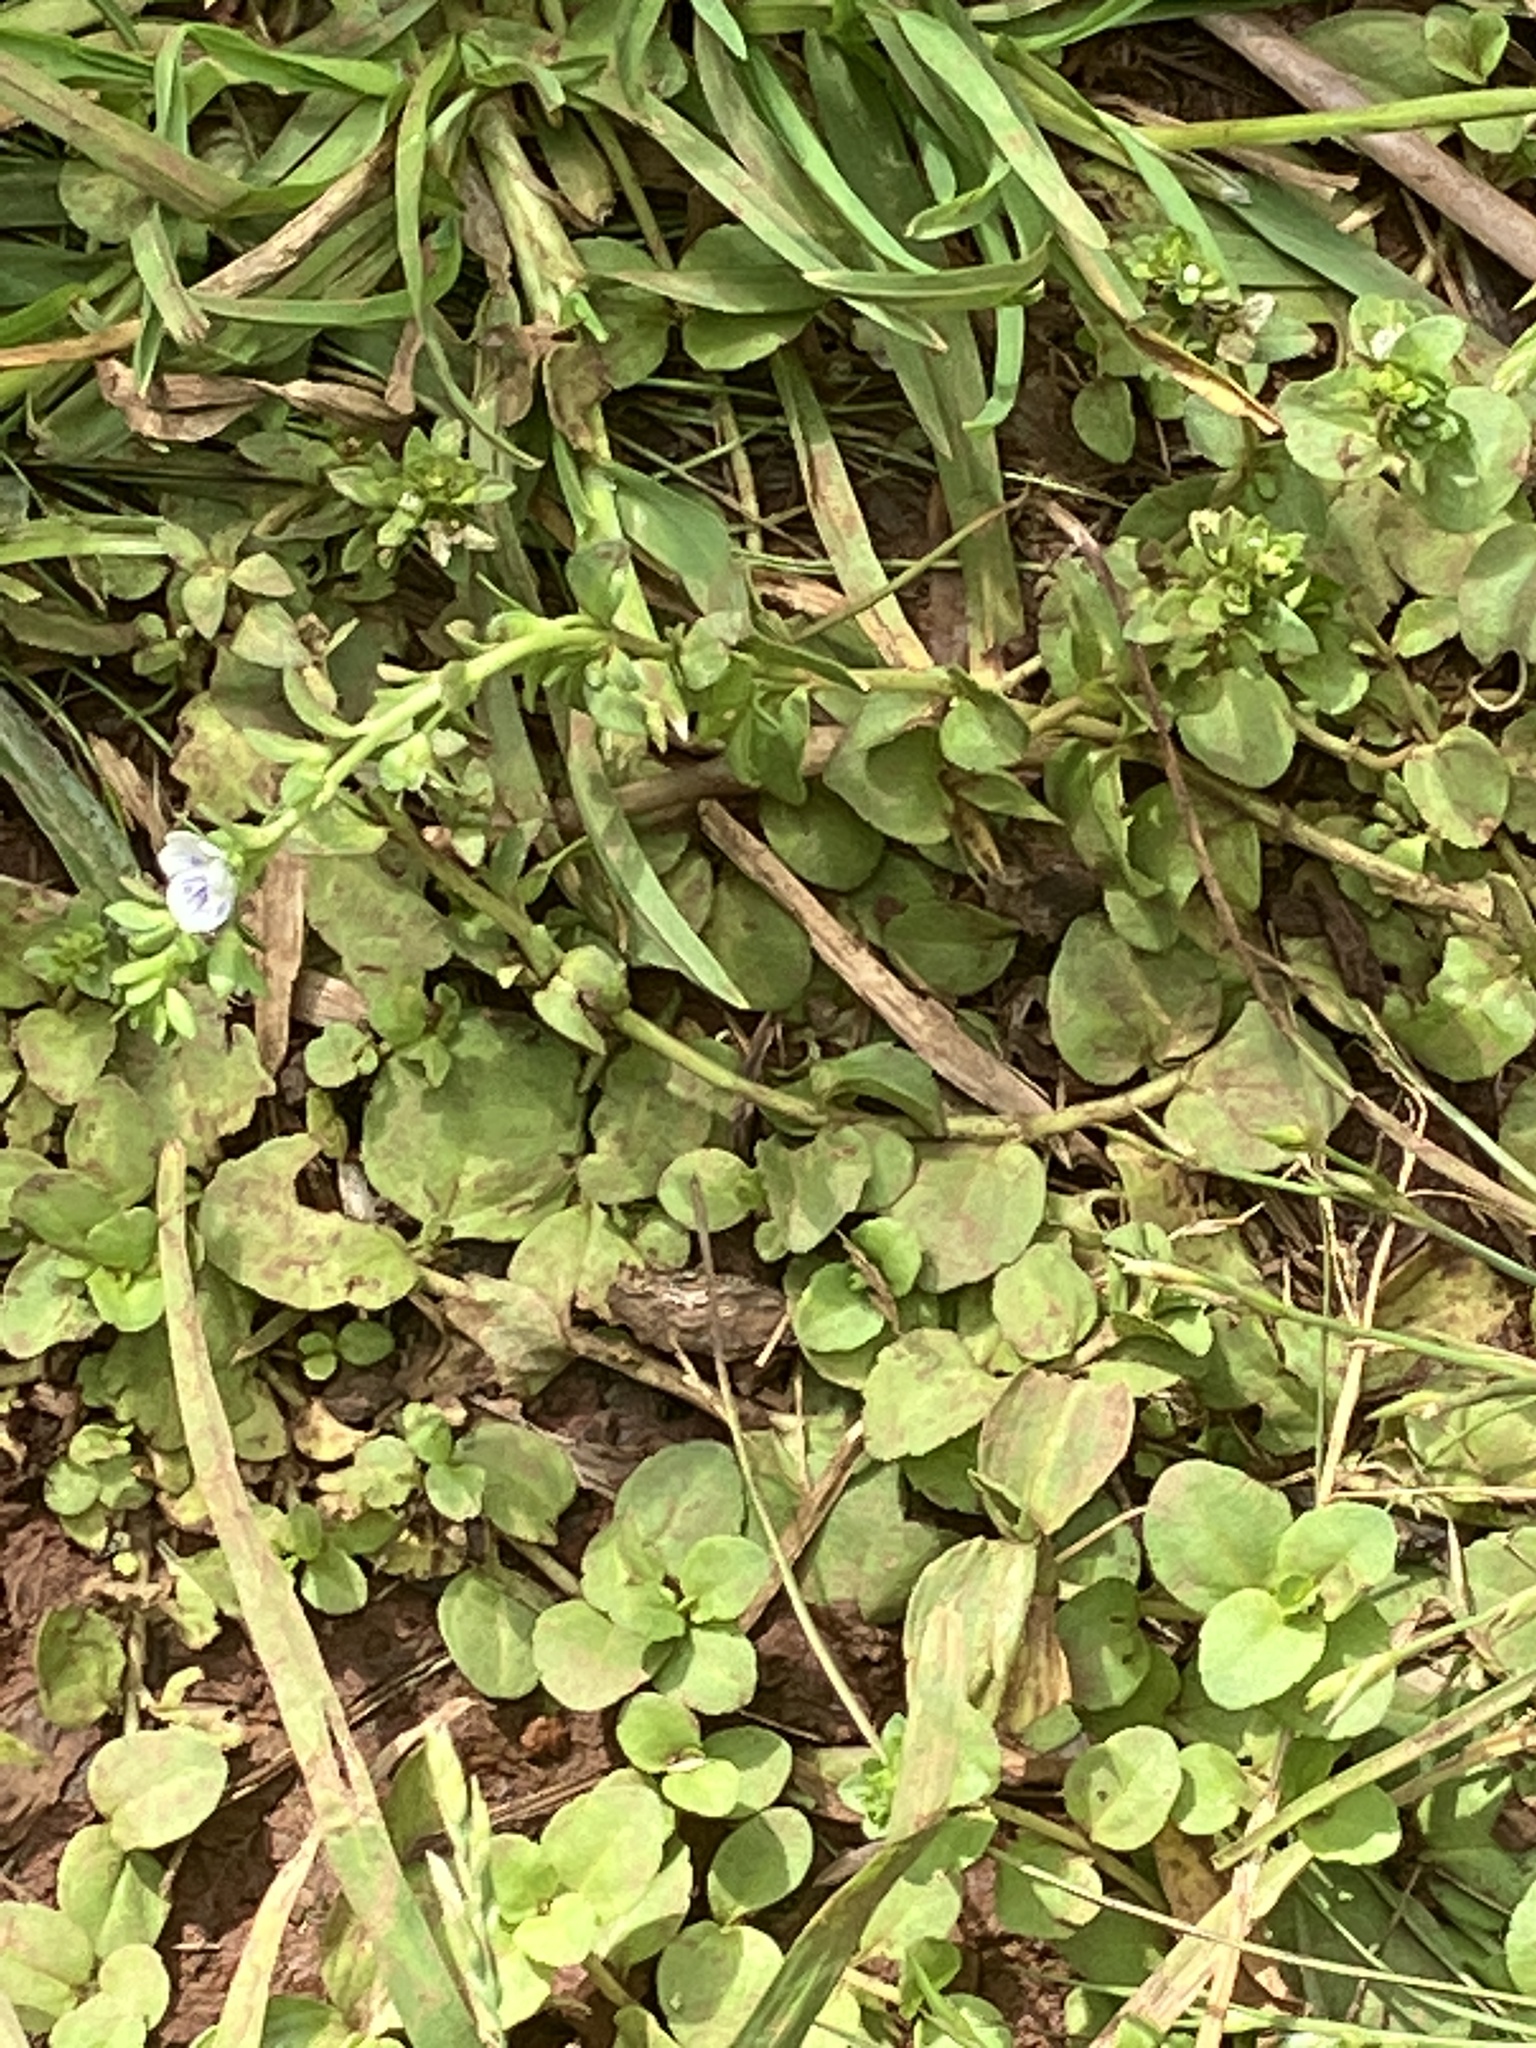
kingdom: Plantae
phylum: Tracheophyta
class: Magnoliopsida
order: Lamiales
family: Plantaginaceae
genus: Veronica
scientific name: Veronica serpyllifolia
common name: Thyme-leaved speedwell
